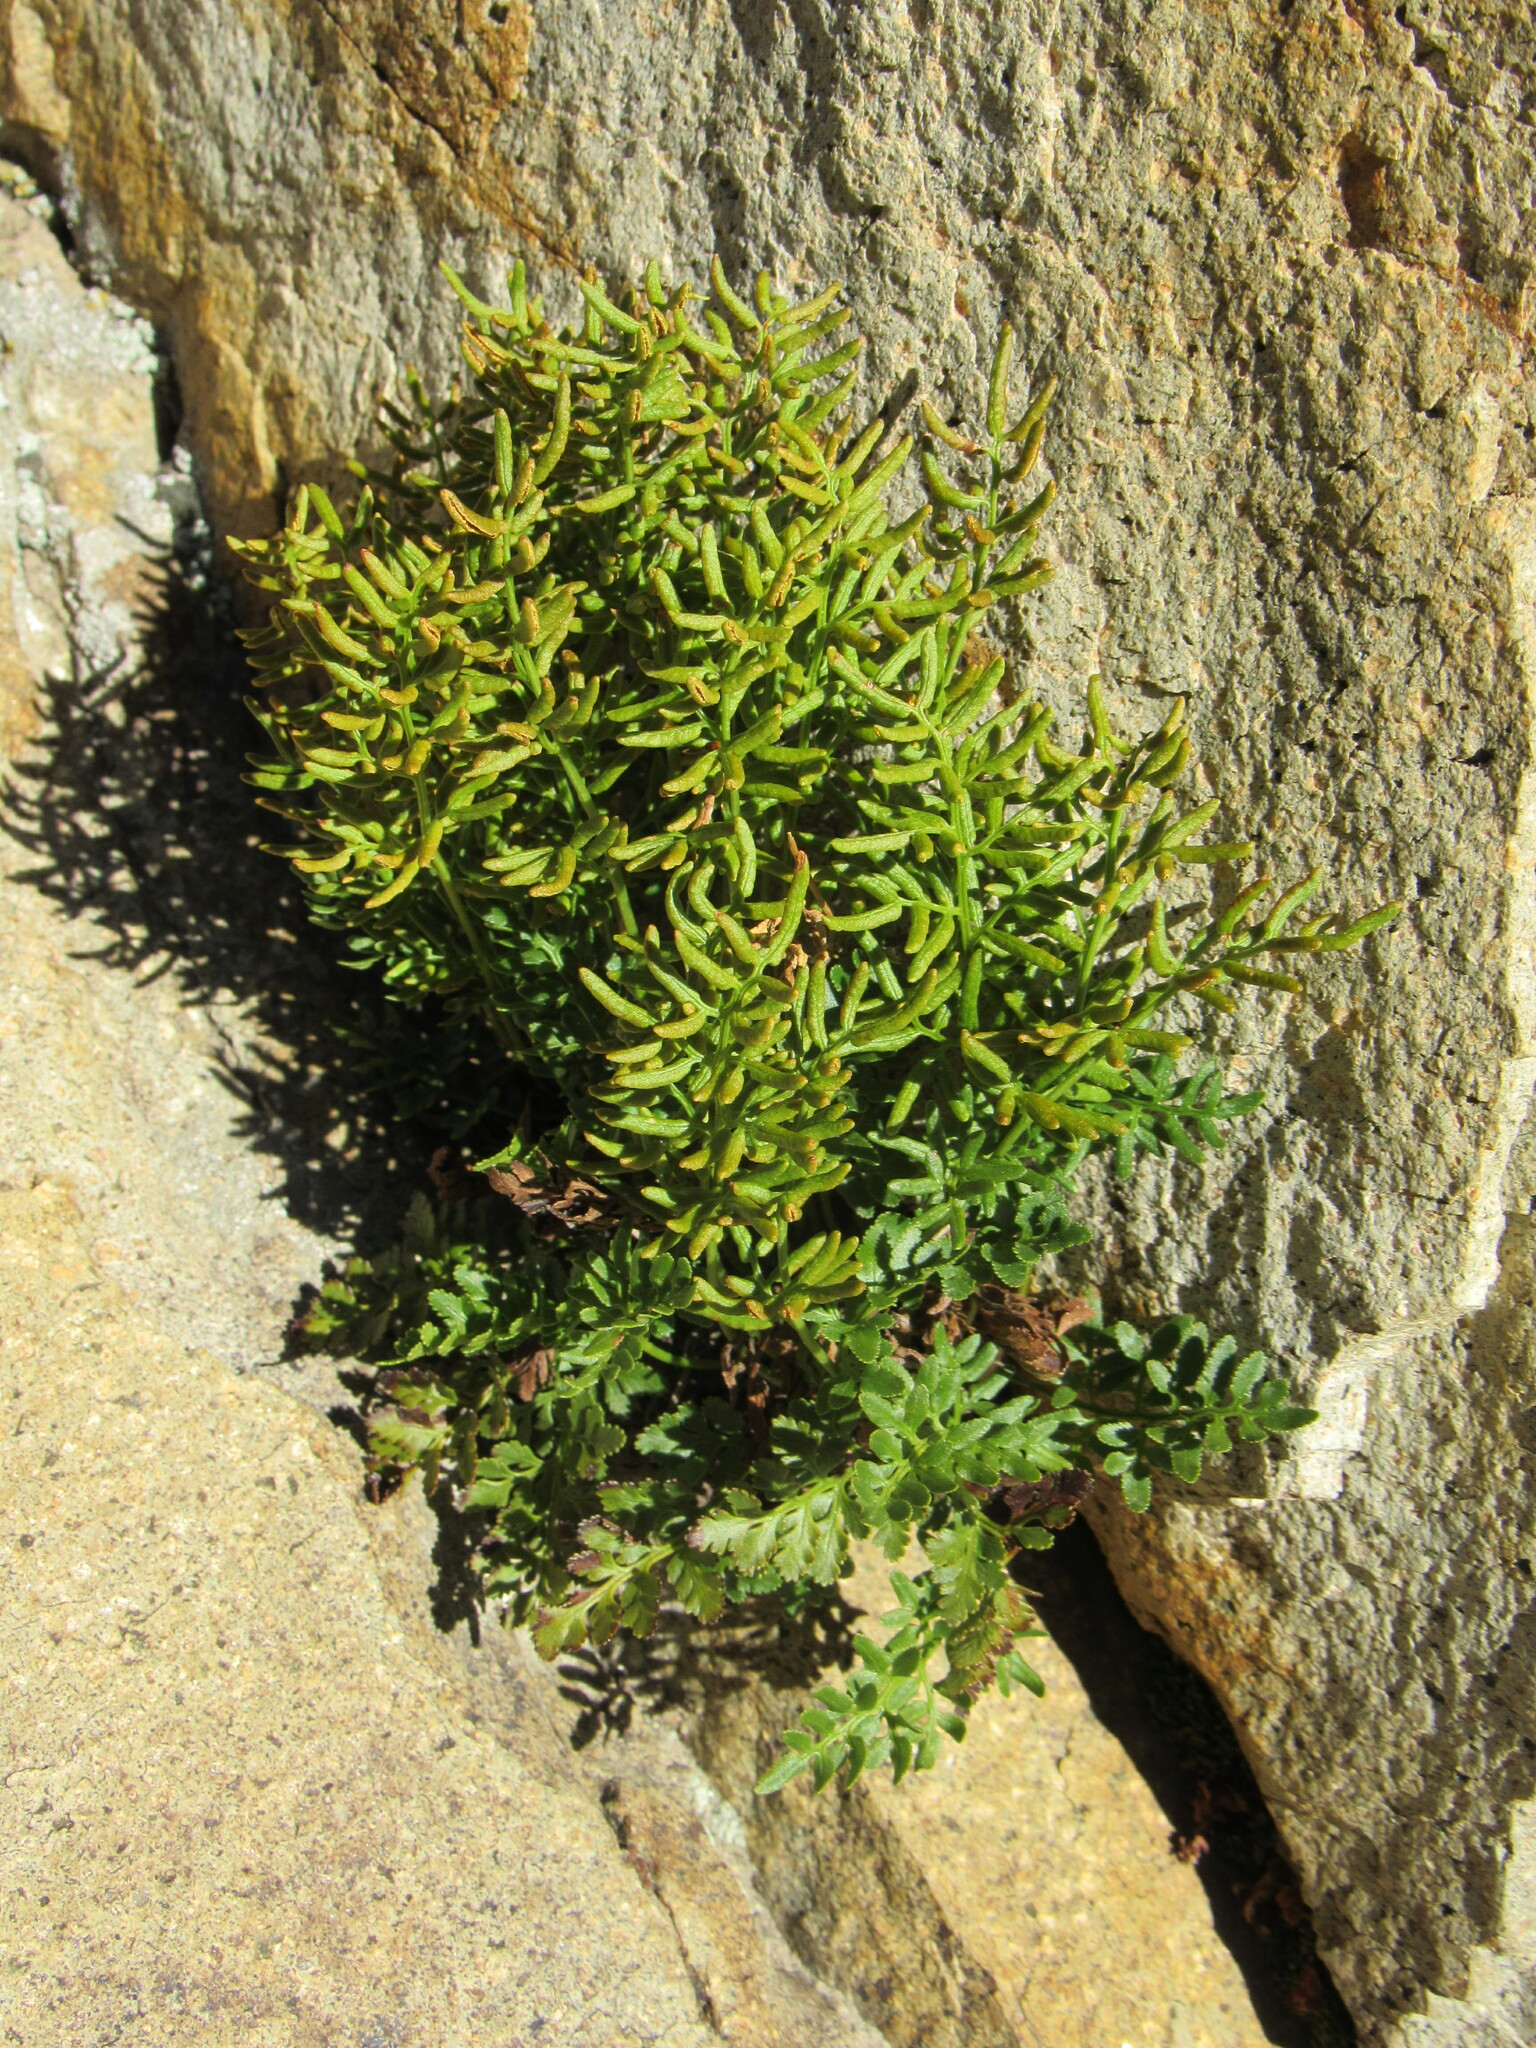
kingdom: Plantae
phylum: Tracheophyta
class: Polypodiopsida
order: Polypodiales
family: Pteridaceae
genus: Cryptogramma
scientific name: Cryptogramma acrostichoides
